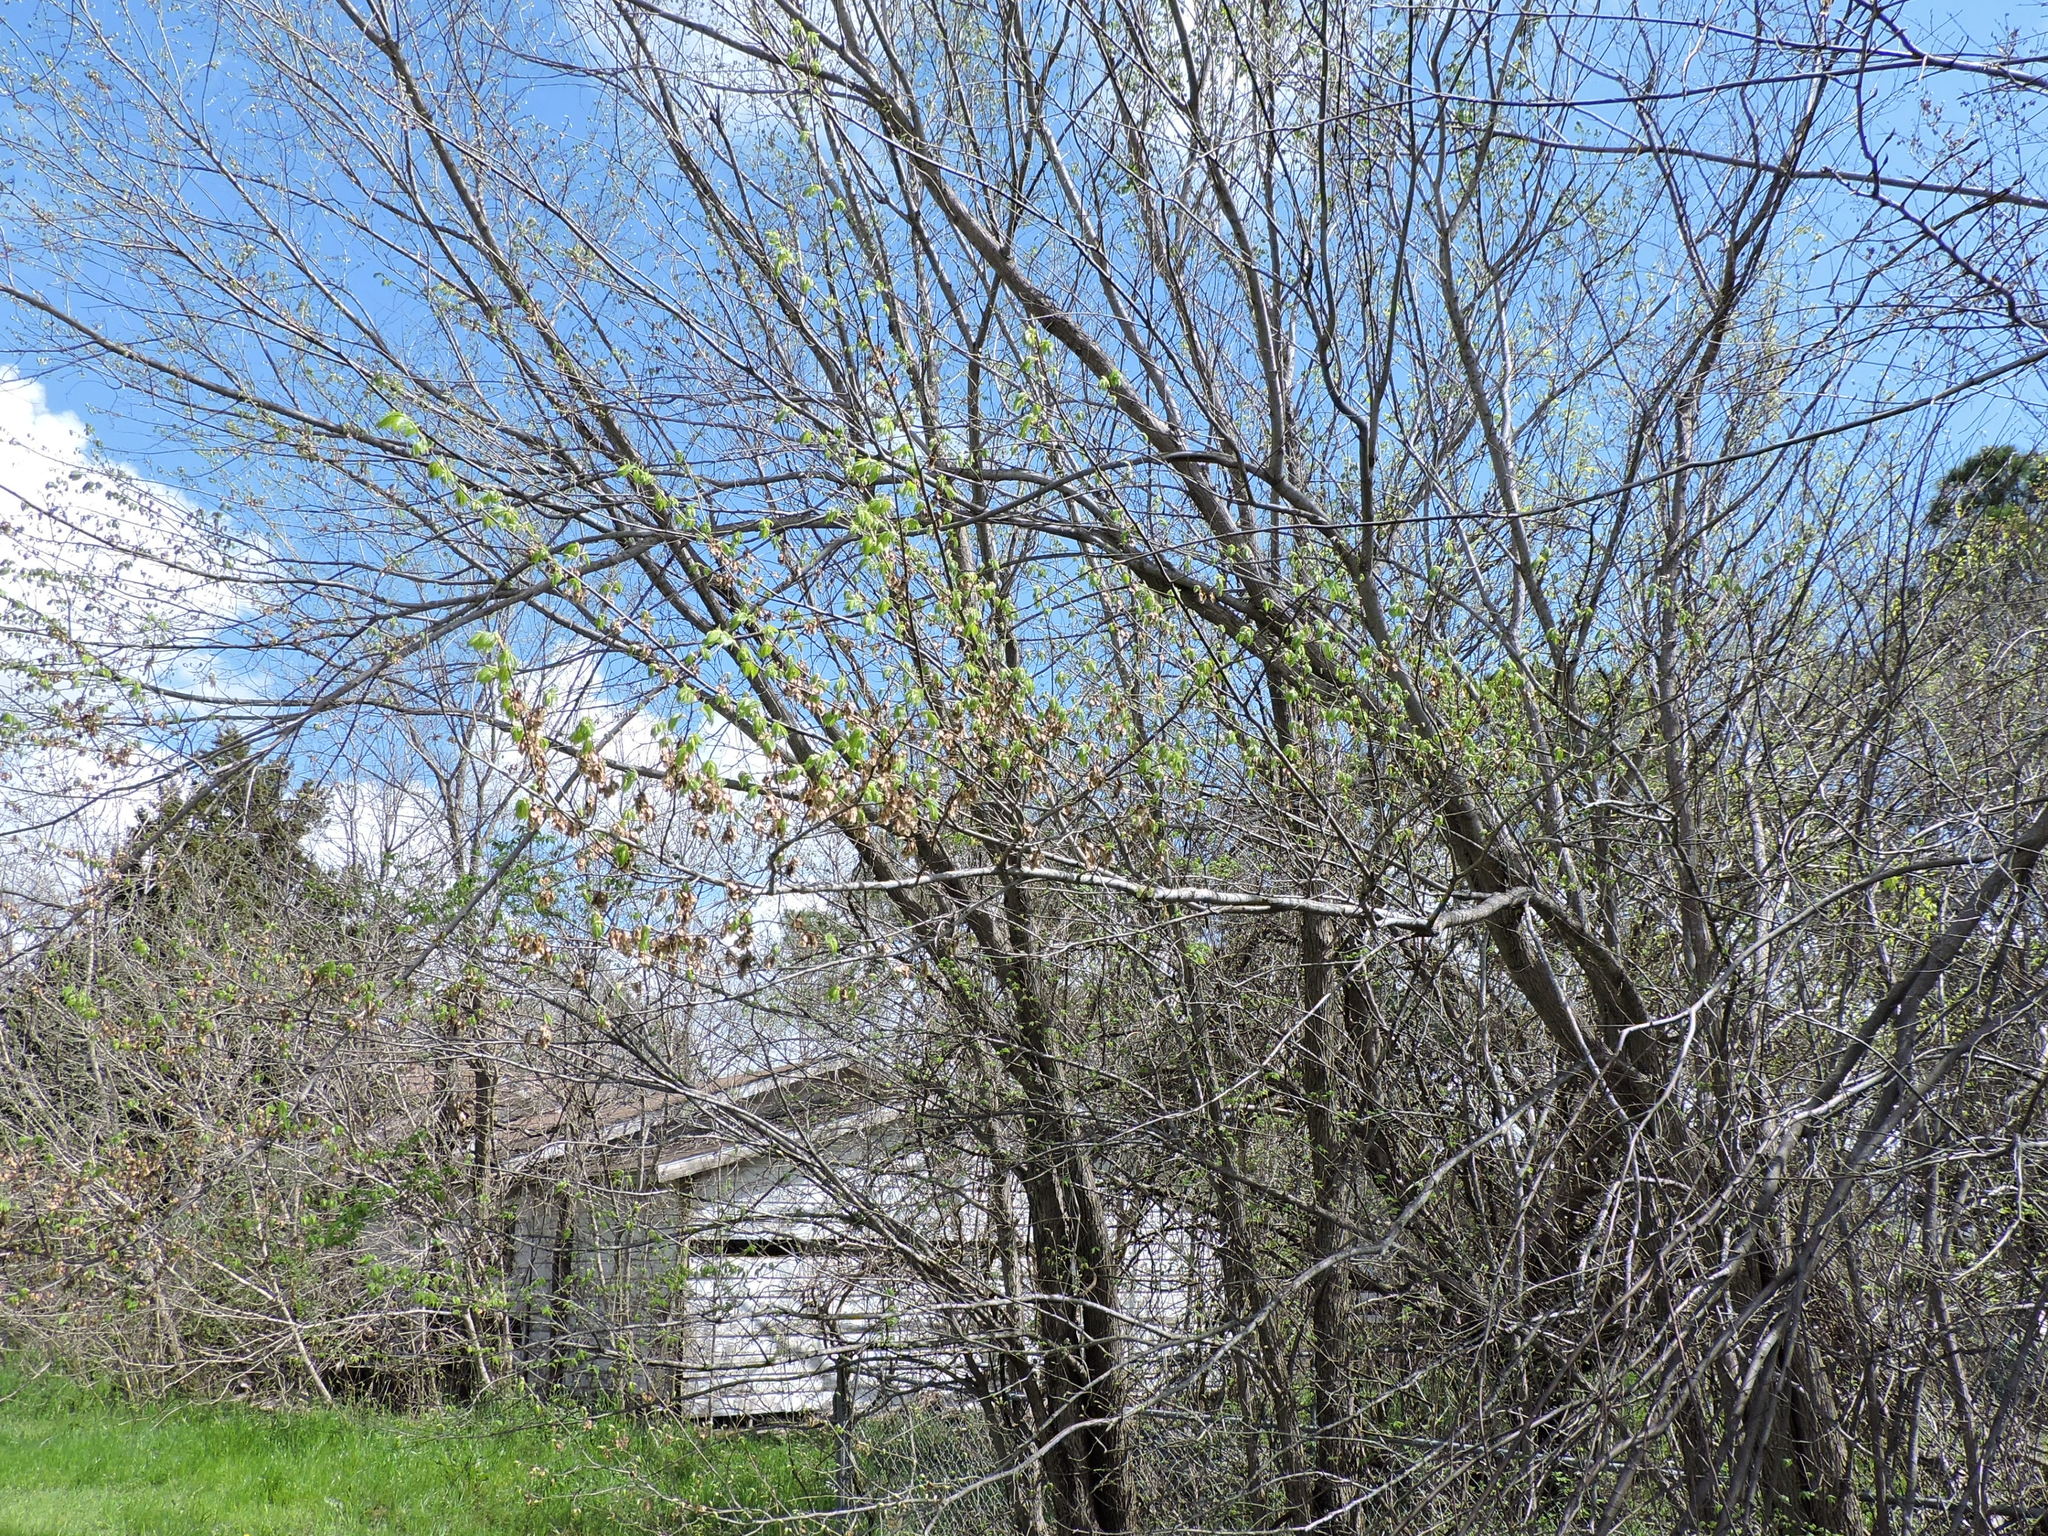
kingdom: Plantae
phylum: Tracheophyta
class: Magnoliopsida
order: Rosales
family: Ulmaceae
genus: Ulmus
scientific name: Ulmus americana
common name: American elm
